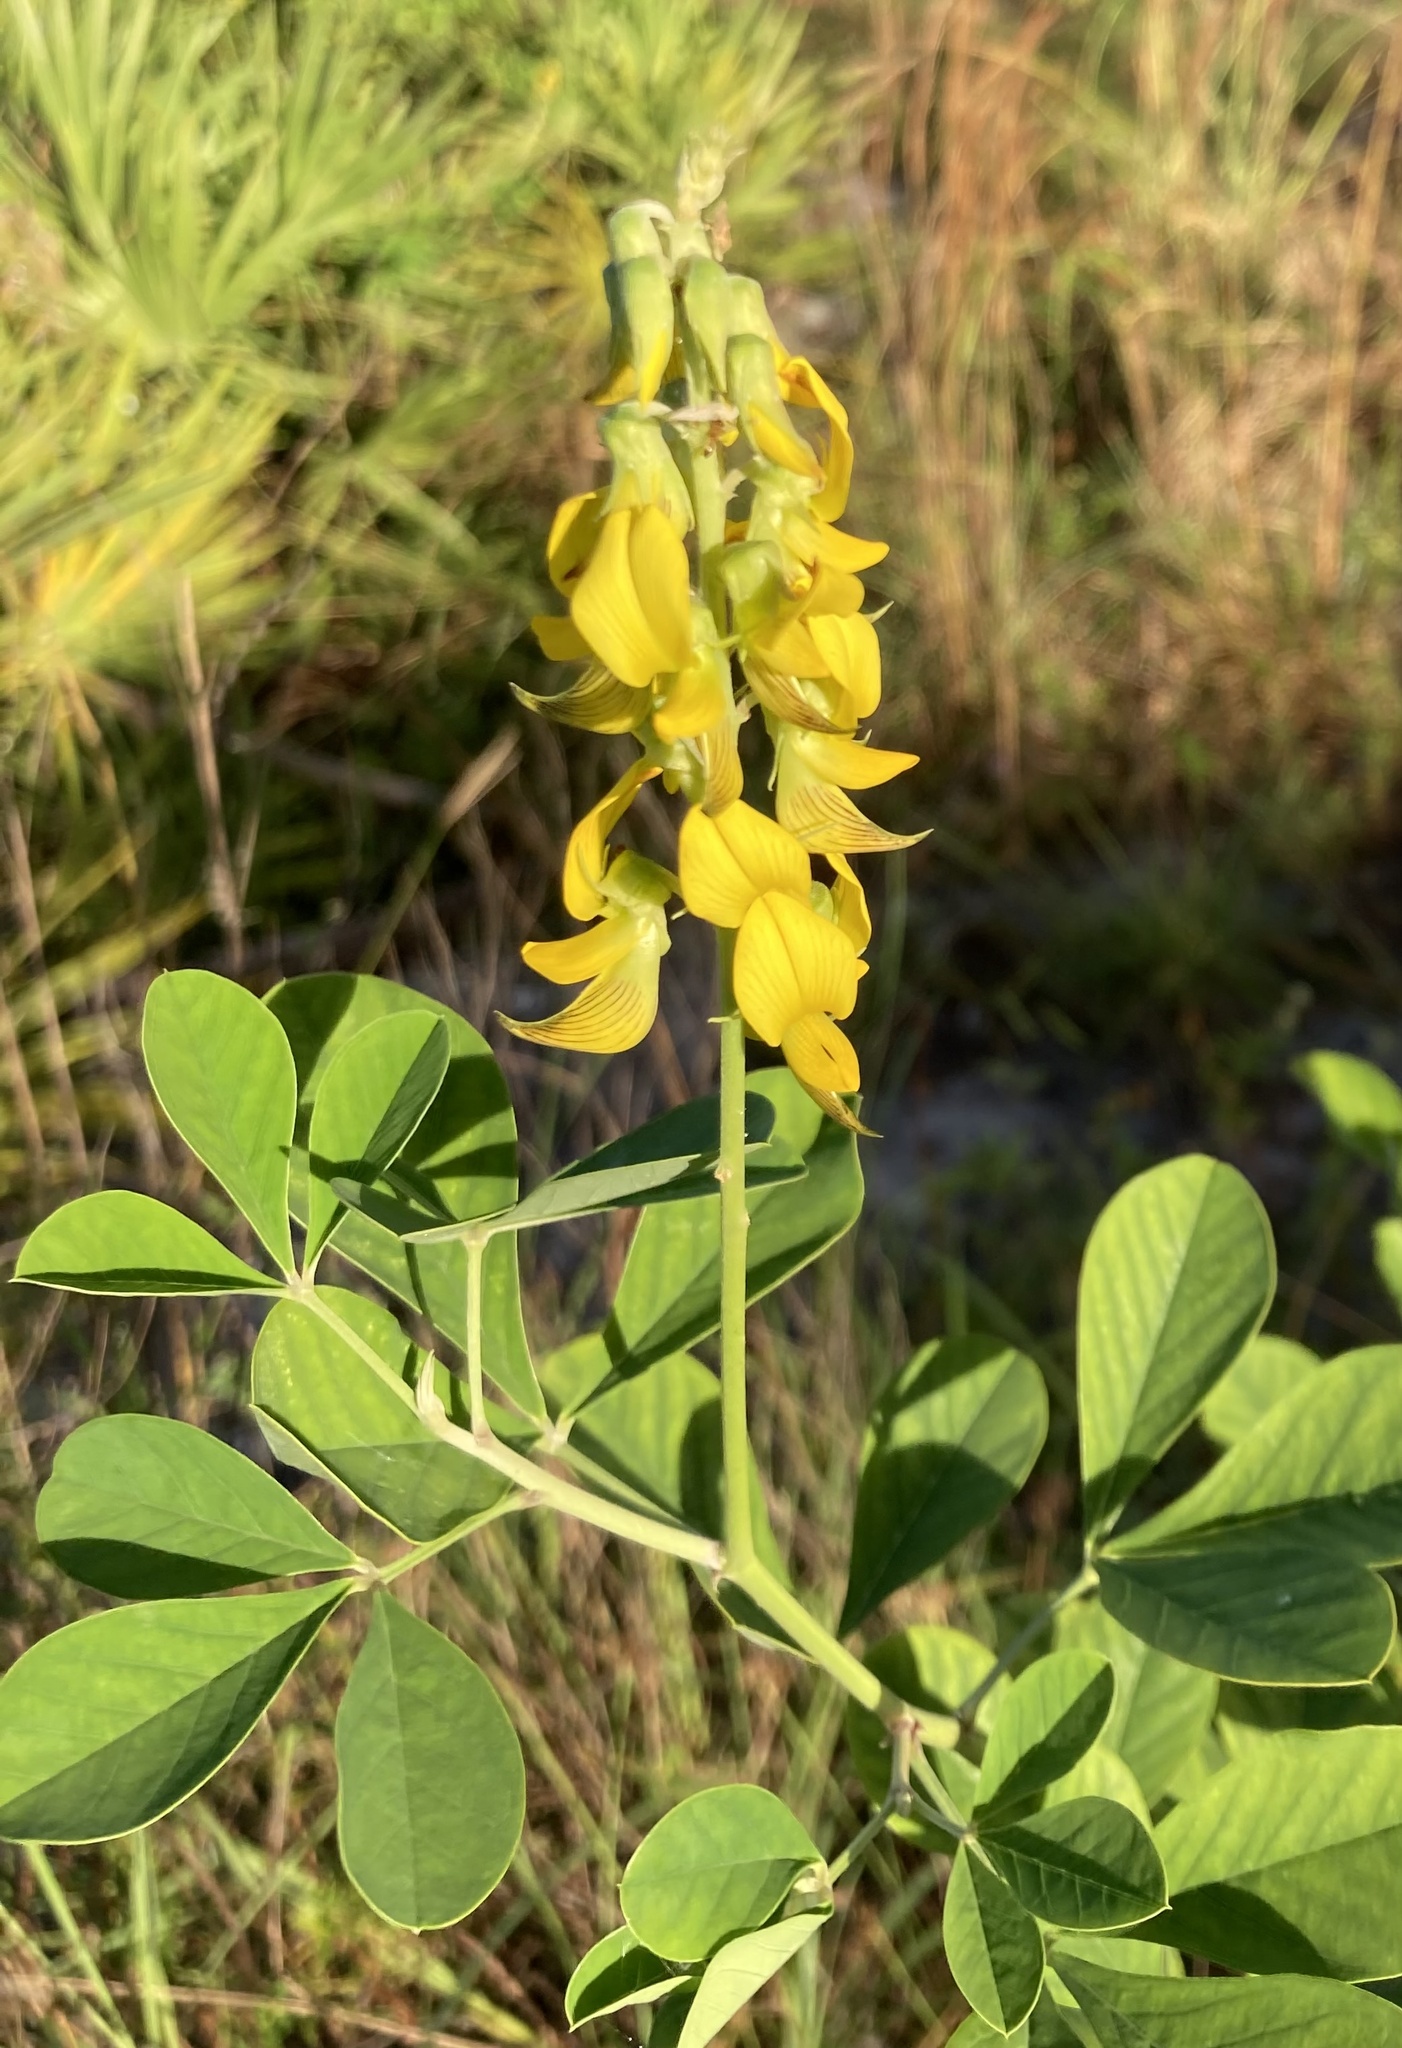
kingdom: Plantae
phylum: Tracheophyta
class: Magnoliopsida
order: Fabales
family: Fabaceae
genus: Crotalaria
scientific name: Crotalaria pallida
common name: Smooth rattlebox
